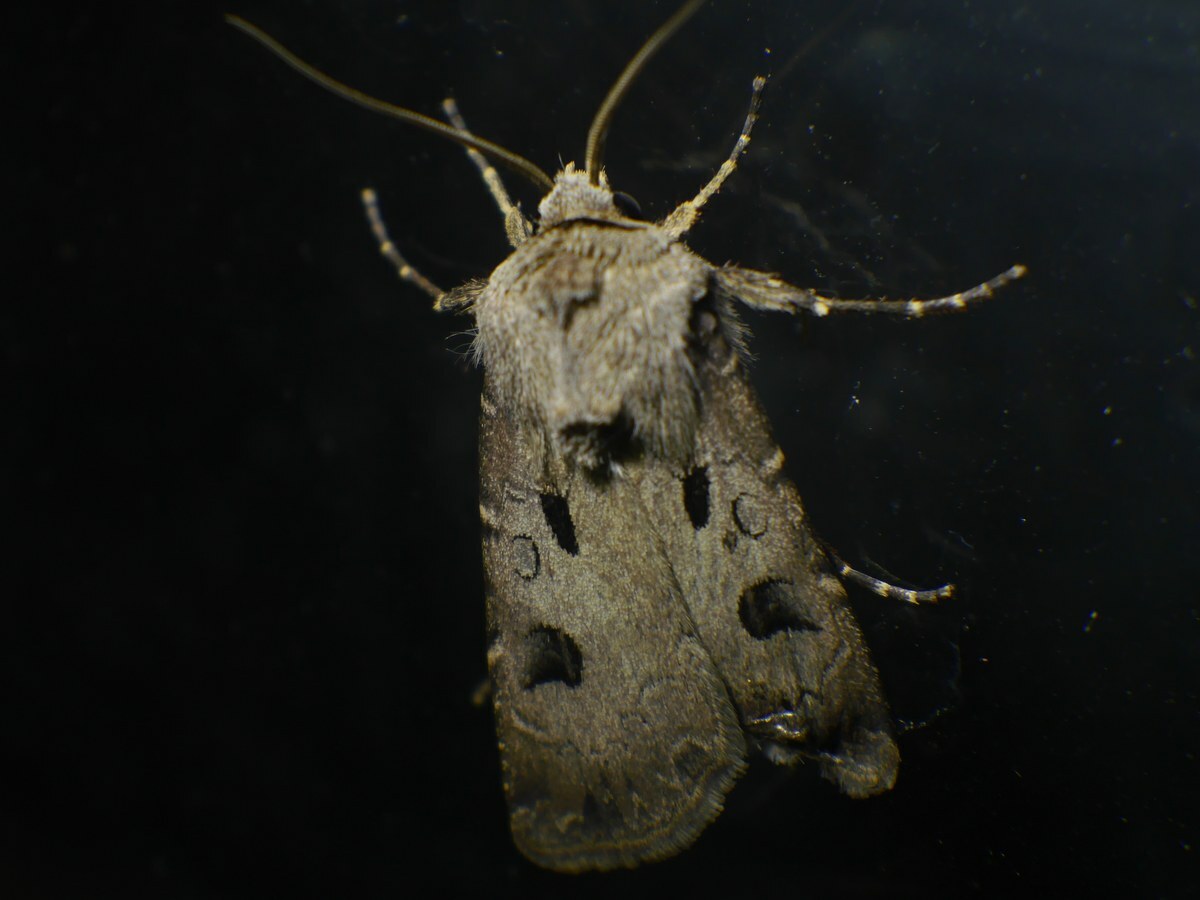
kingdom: Animalia
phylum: Arthropoda
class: Insecta
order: Lepidoptera
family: Noctuidae
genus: Agrotis
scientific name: Agrotis exclamationis
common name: Heart and dart
